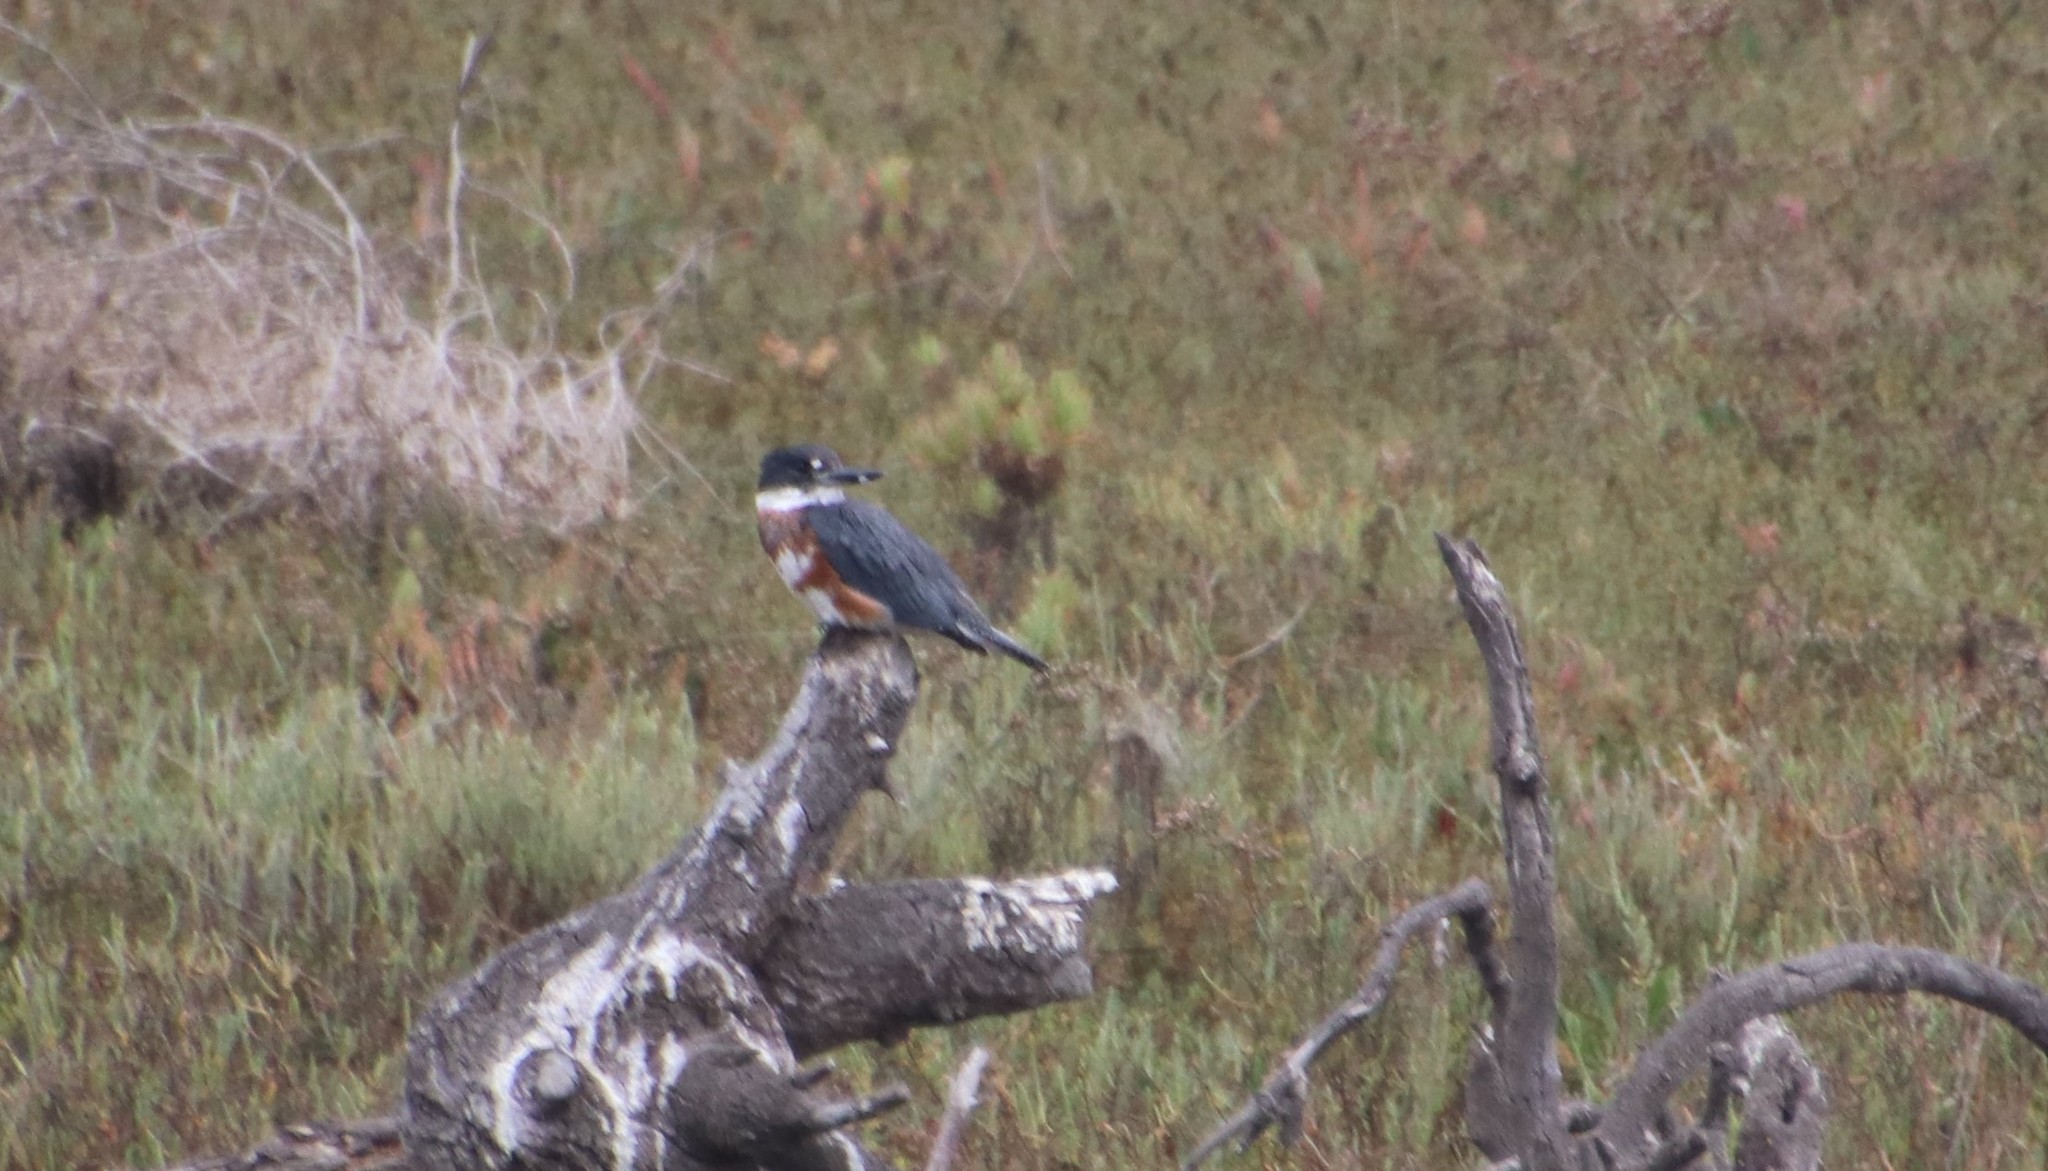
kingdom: Animalia
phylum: Chordata
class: Aves
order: Coraciiformes
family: Alcedinidae
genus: Megaceryle
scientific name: Megaceryle alcyon
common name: Belted kingfisher
